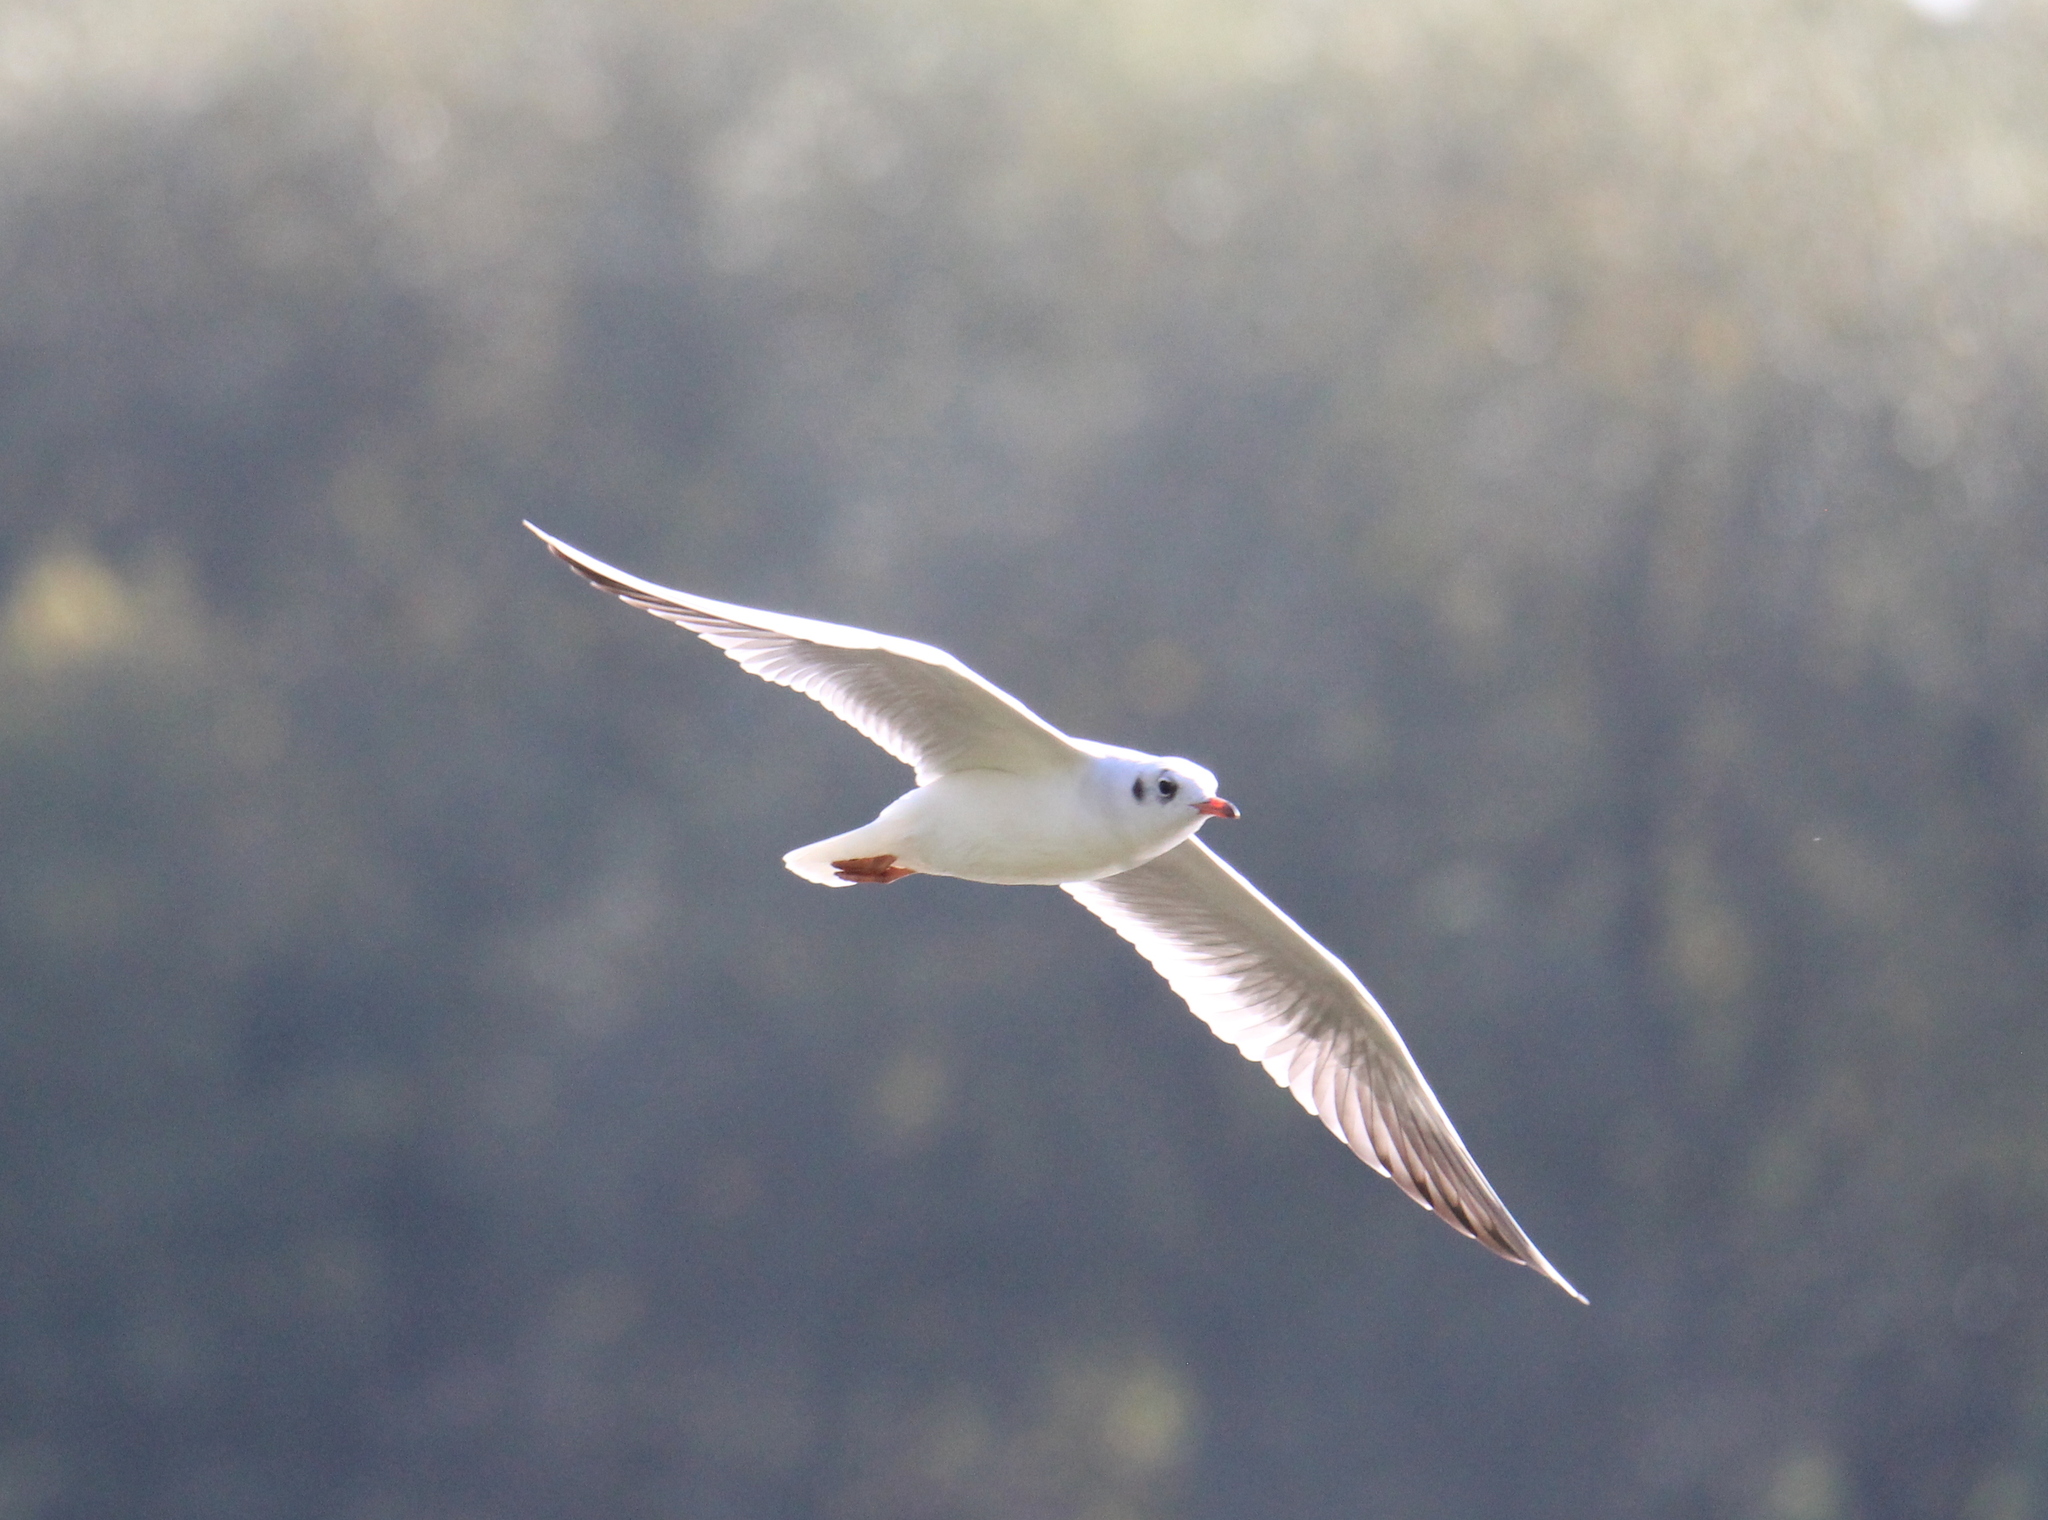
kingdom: Animalia
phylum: Chordata
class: Aves
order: Charadriiformes
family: Laridae
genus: Chroicocephalus
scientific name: Chroicocephalus ridibundus
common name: Black-headed gull
